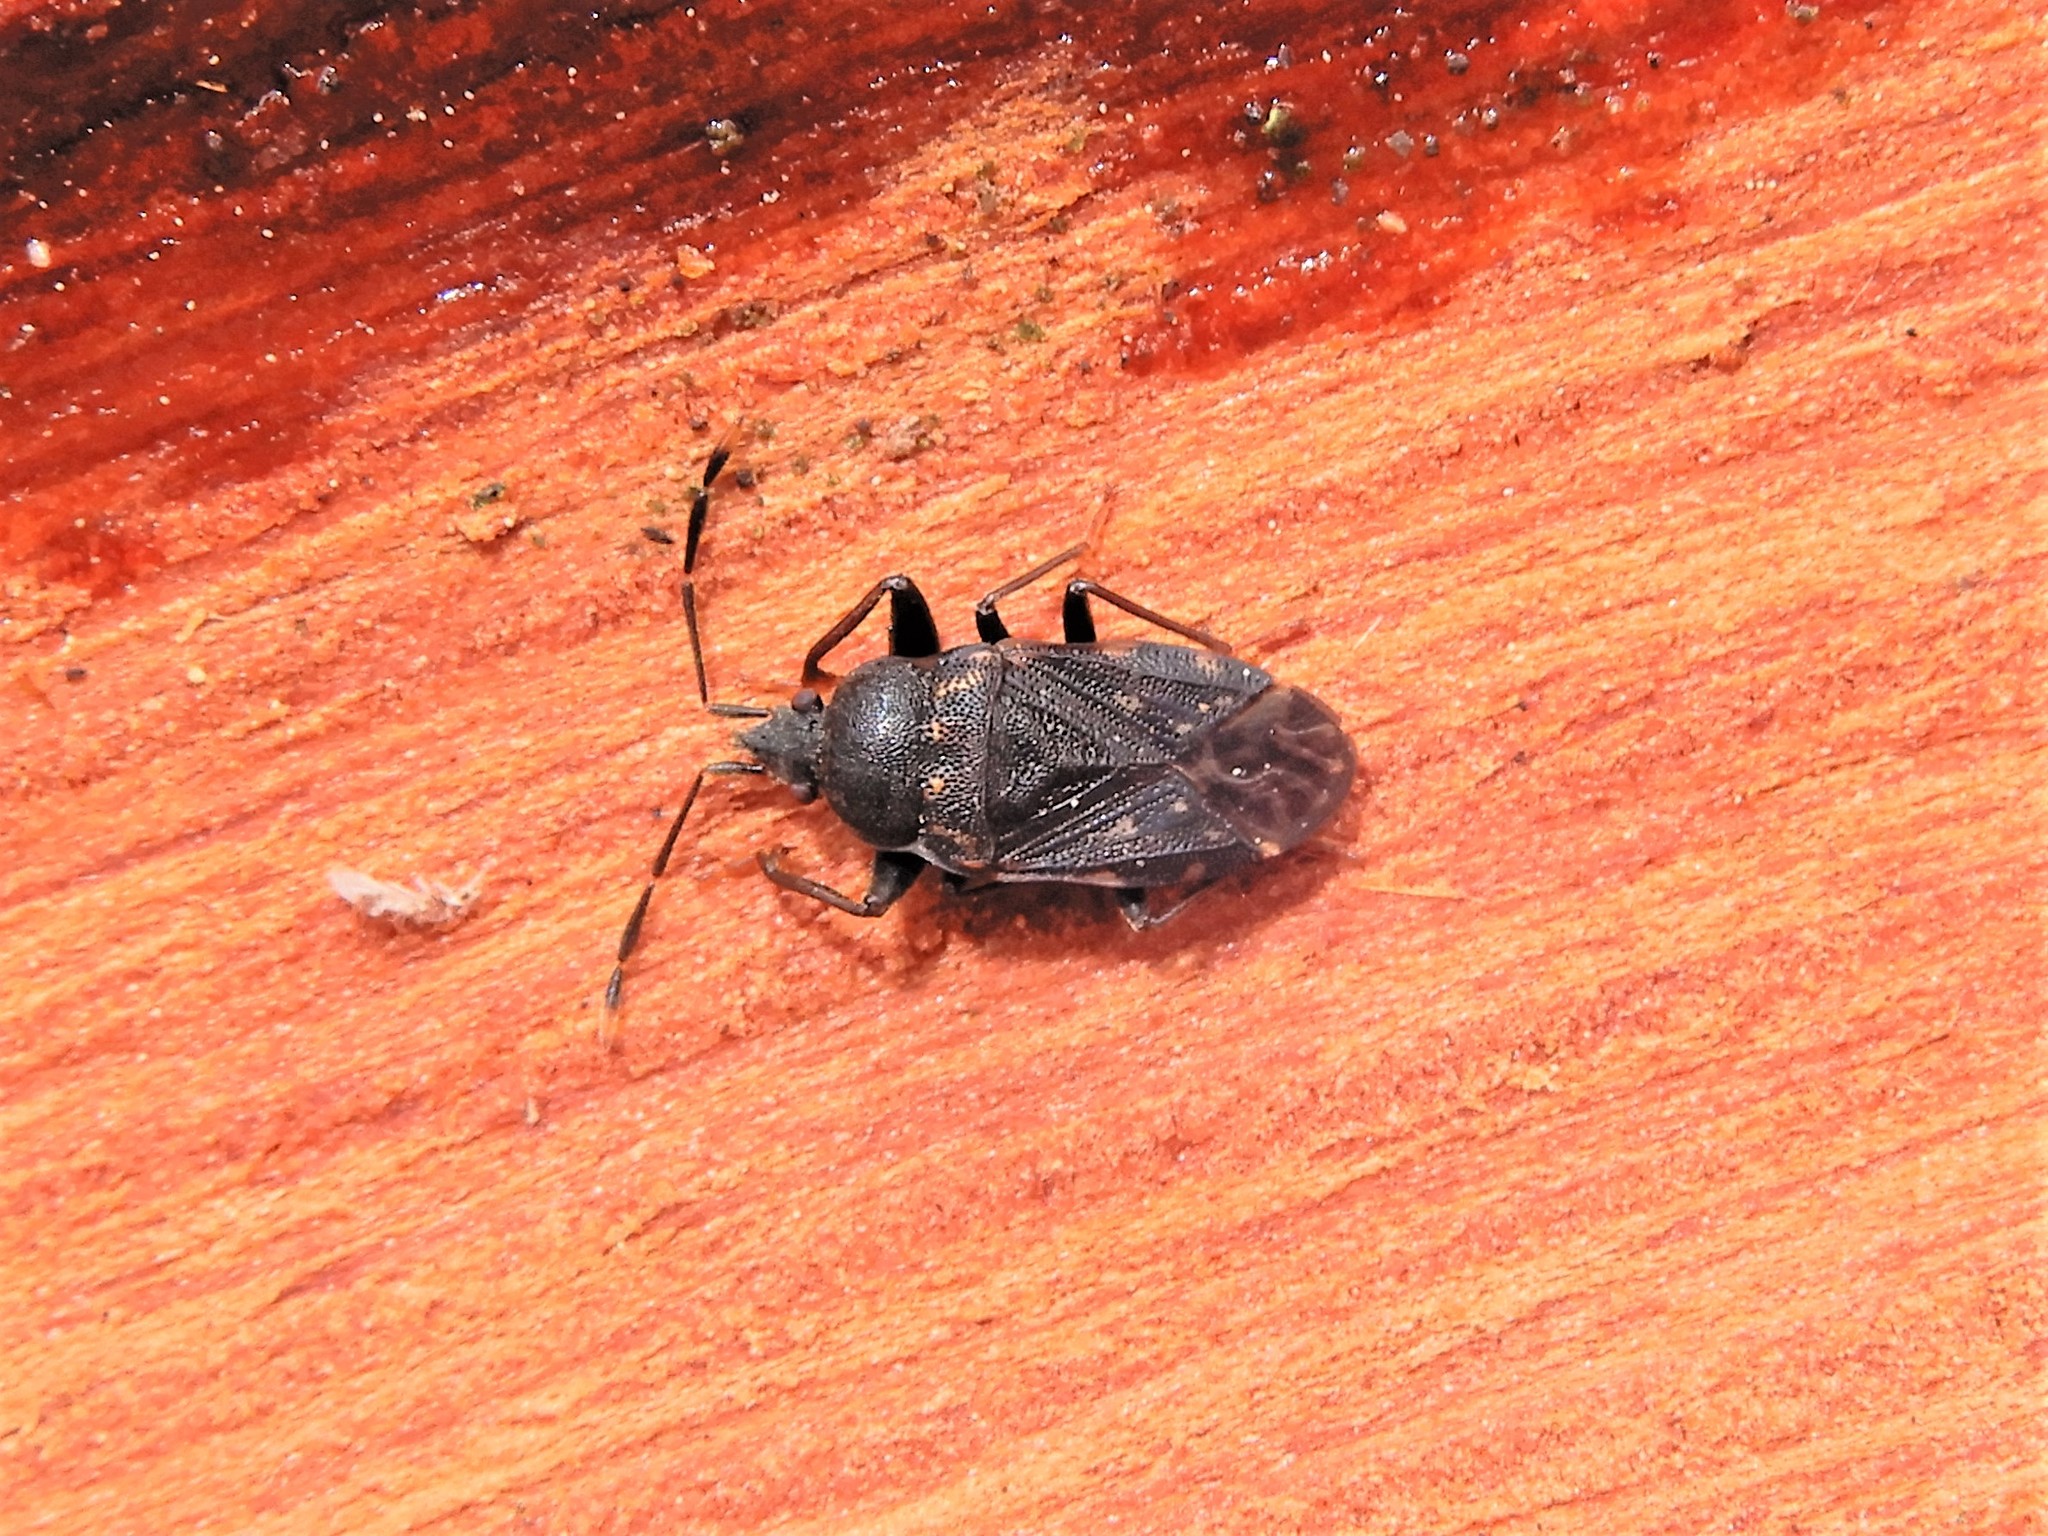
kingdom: Animalia
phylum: Arthropoda
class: Insecta
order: Hemiptera
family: Rhyparochromidae
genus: Paradrymus
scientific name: Paradrymus exilirostris
